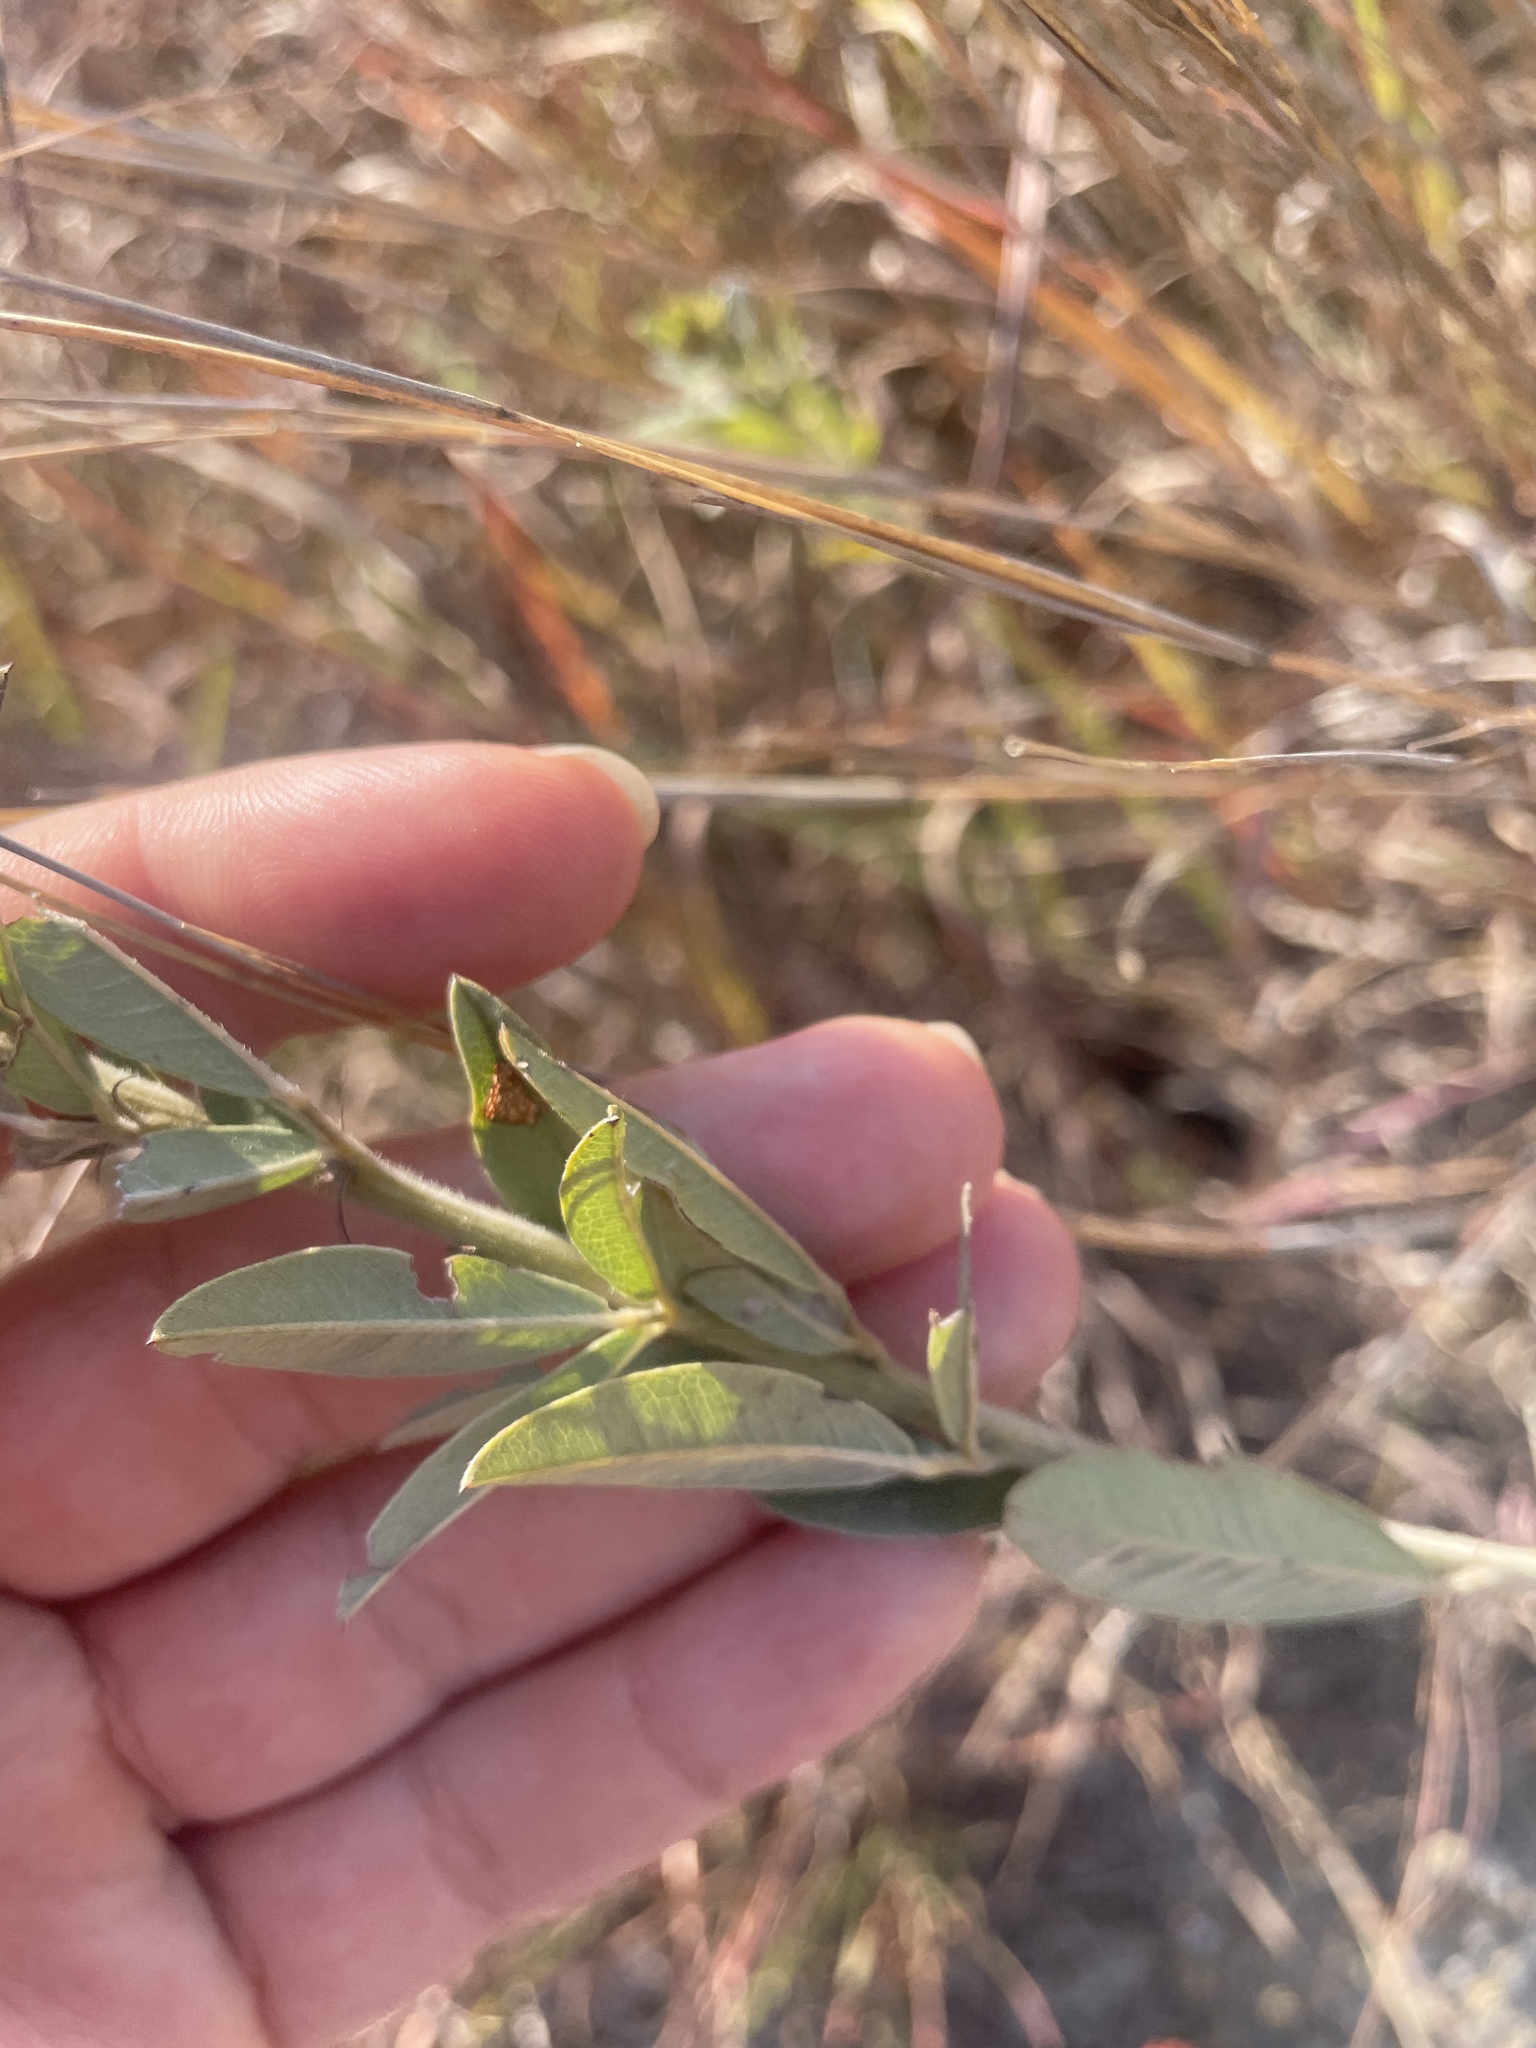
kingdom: Plantae
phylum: Tracheophyta
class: Magnoliopsida
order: Fabales
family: Fabaceae
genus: Lespedeza
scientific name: Lespedeza capitata
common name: Dusty clover
